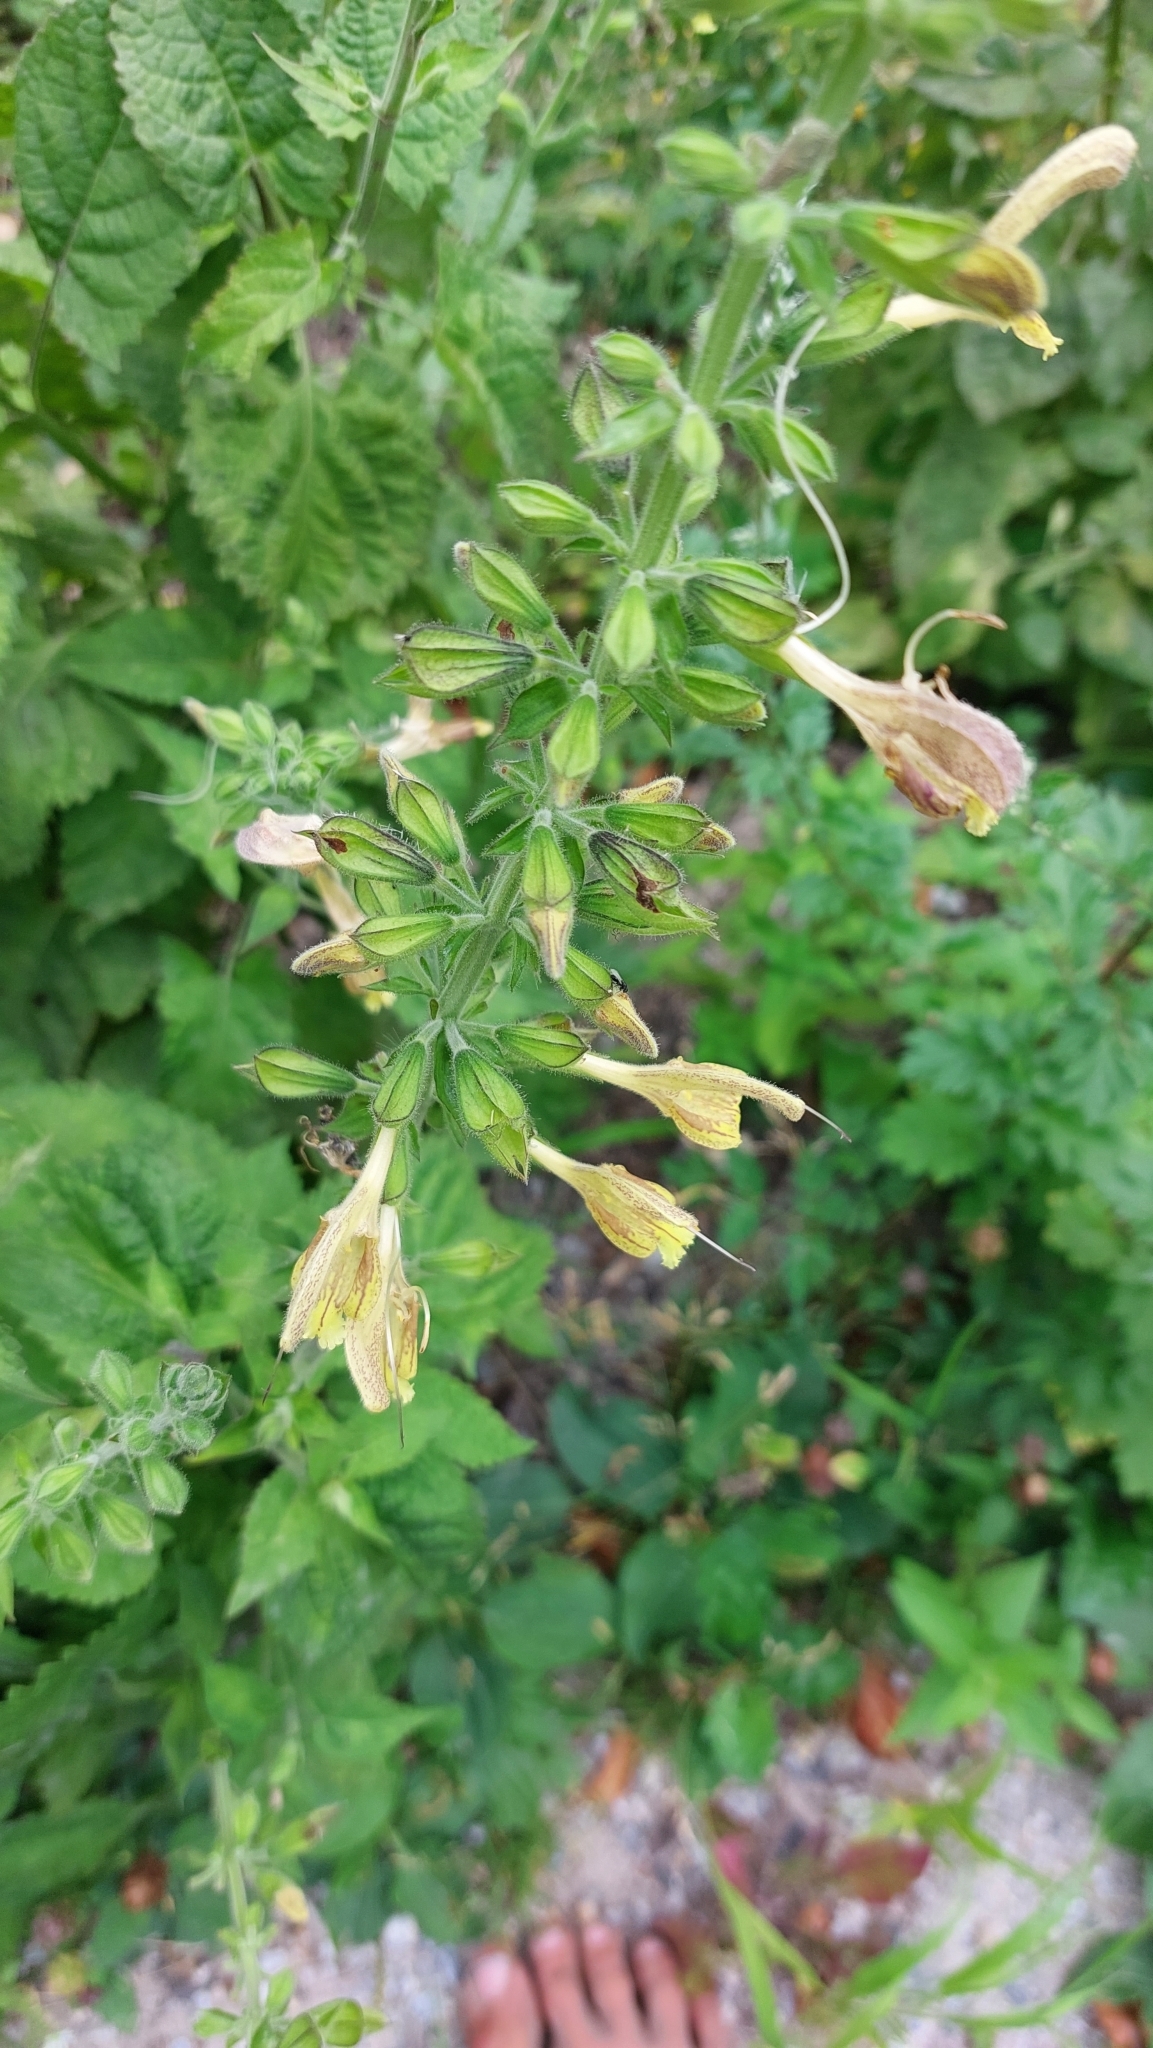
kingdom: Plantae
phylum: Tracheophyta
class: Magnoliopsida
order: Lamiales
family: Lamiaceae
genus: Salvia
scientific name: Salvia glutinosa
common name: Sticky clary
